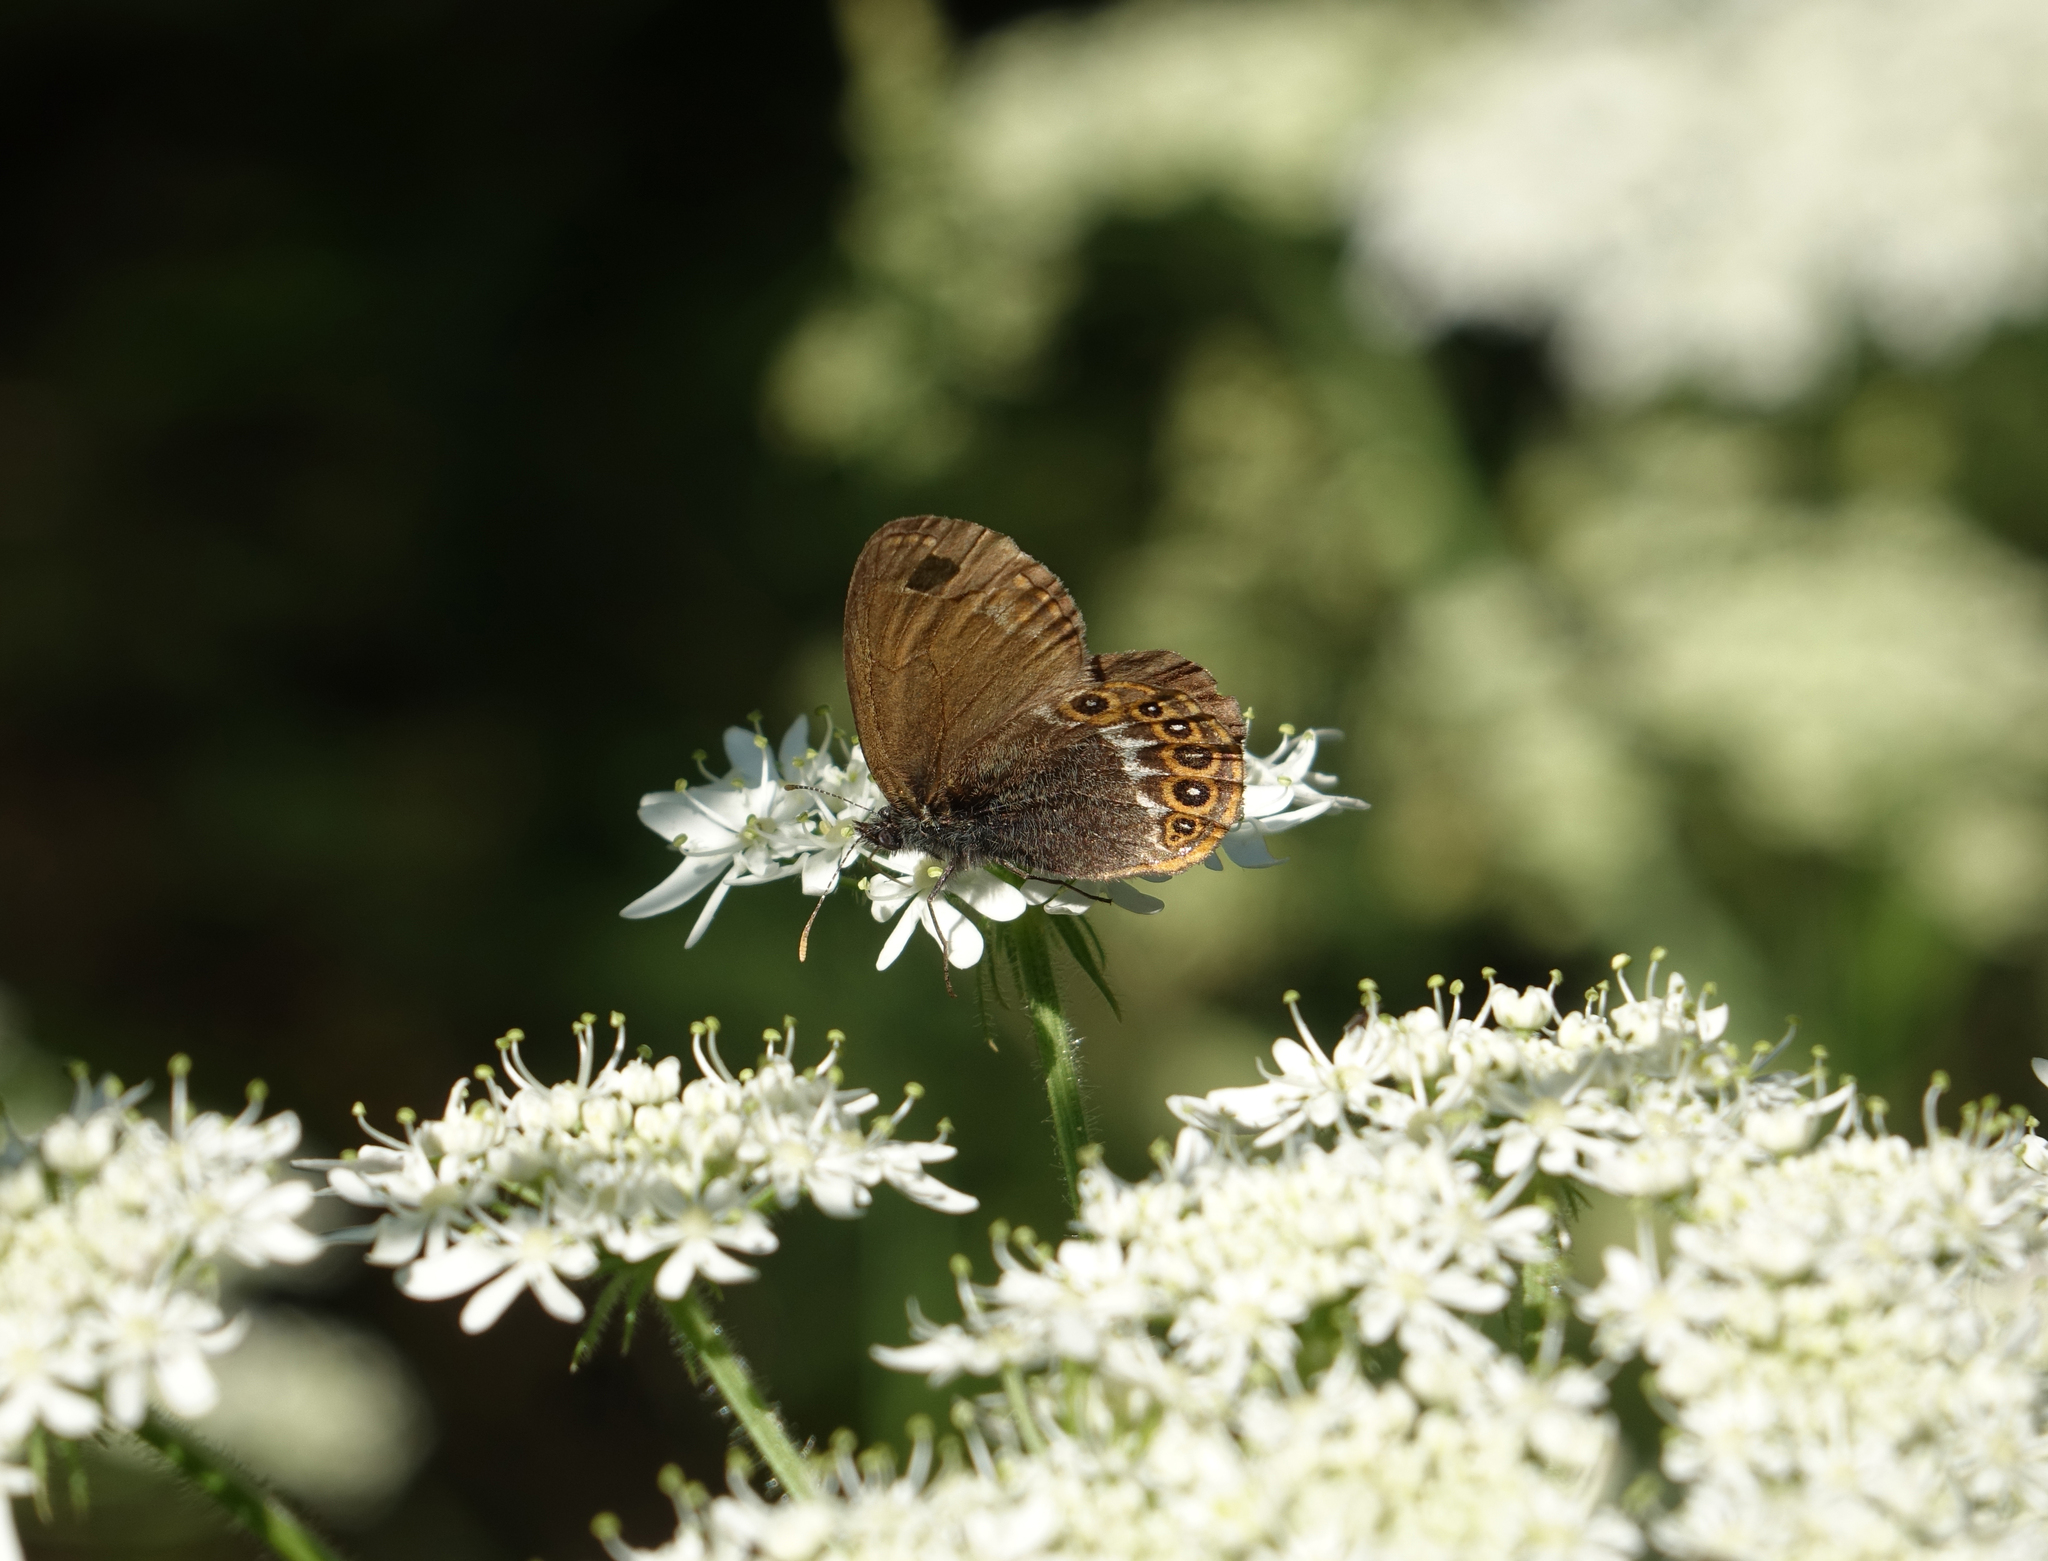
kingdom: Animalia
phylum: Arthropoda
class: Insecta
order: Lepidoptera
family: Nymphalidae
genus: Coenonympha
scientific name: Coenonympha hero
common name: Scarce heath
